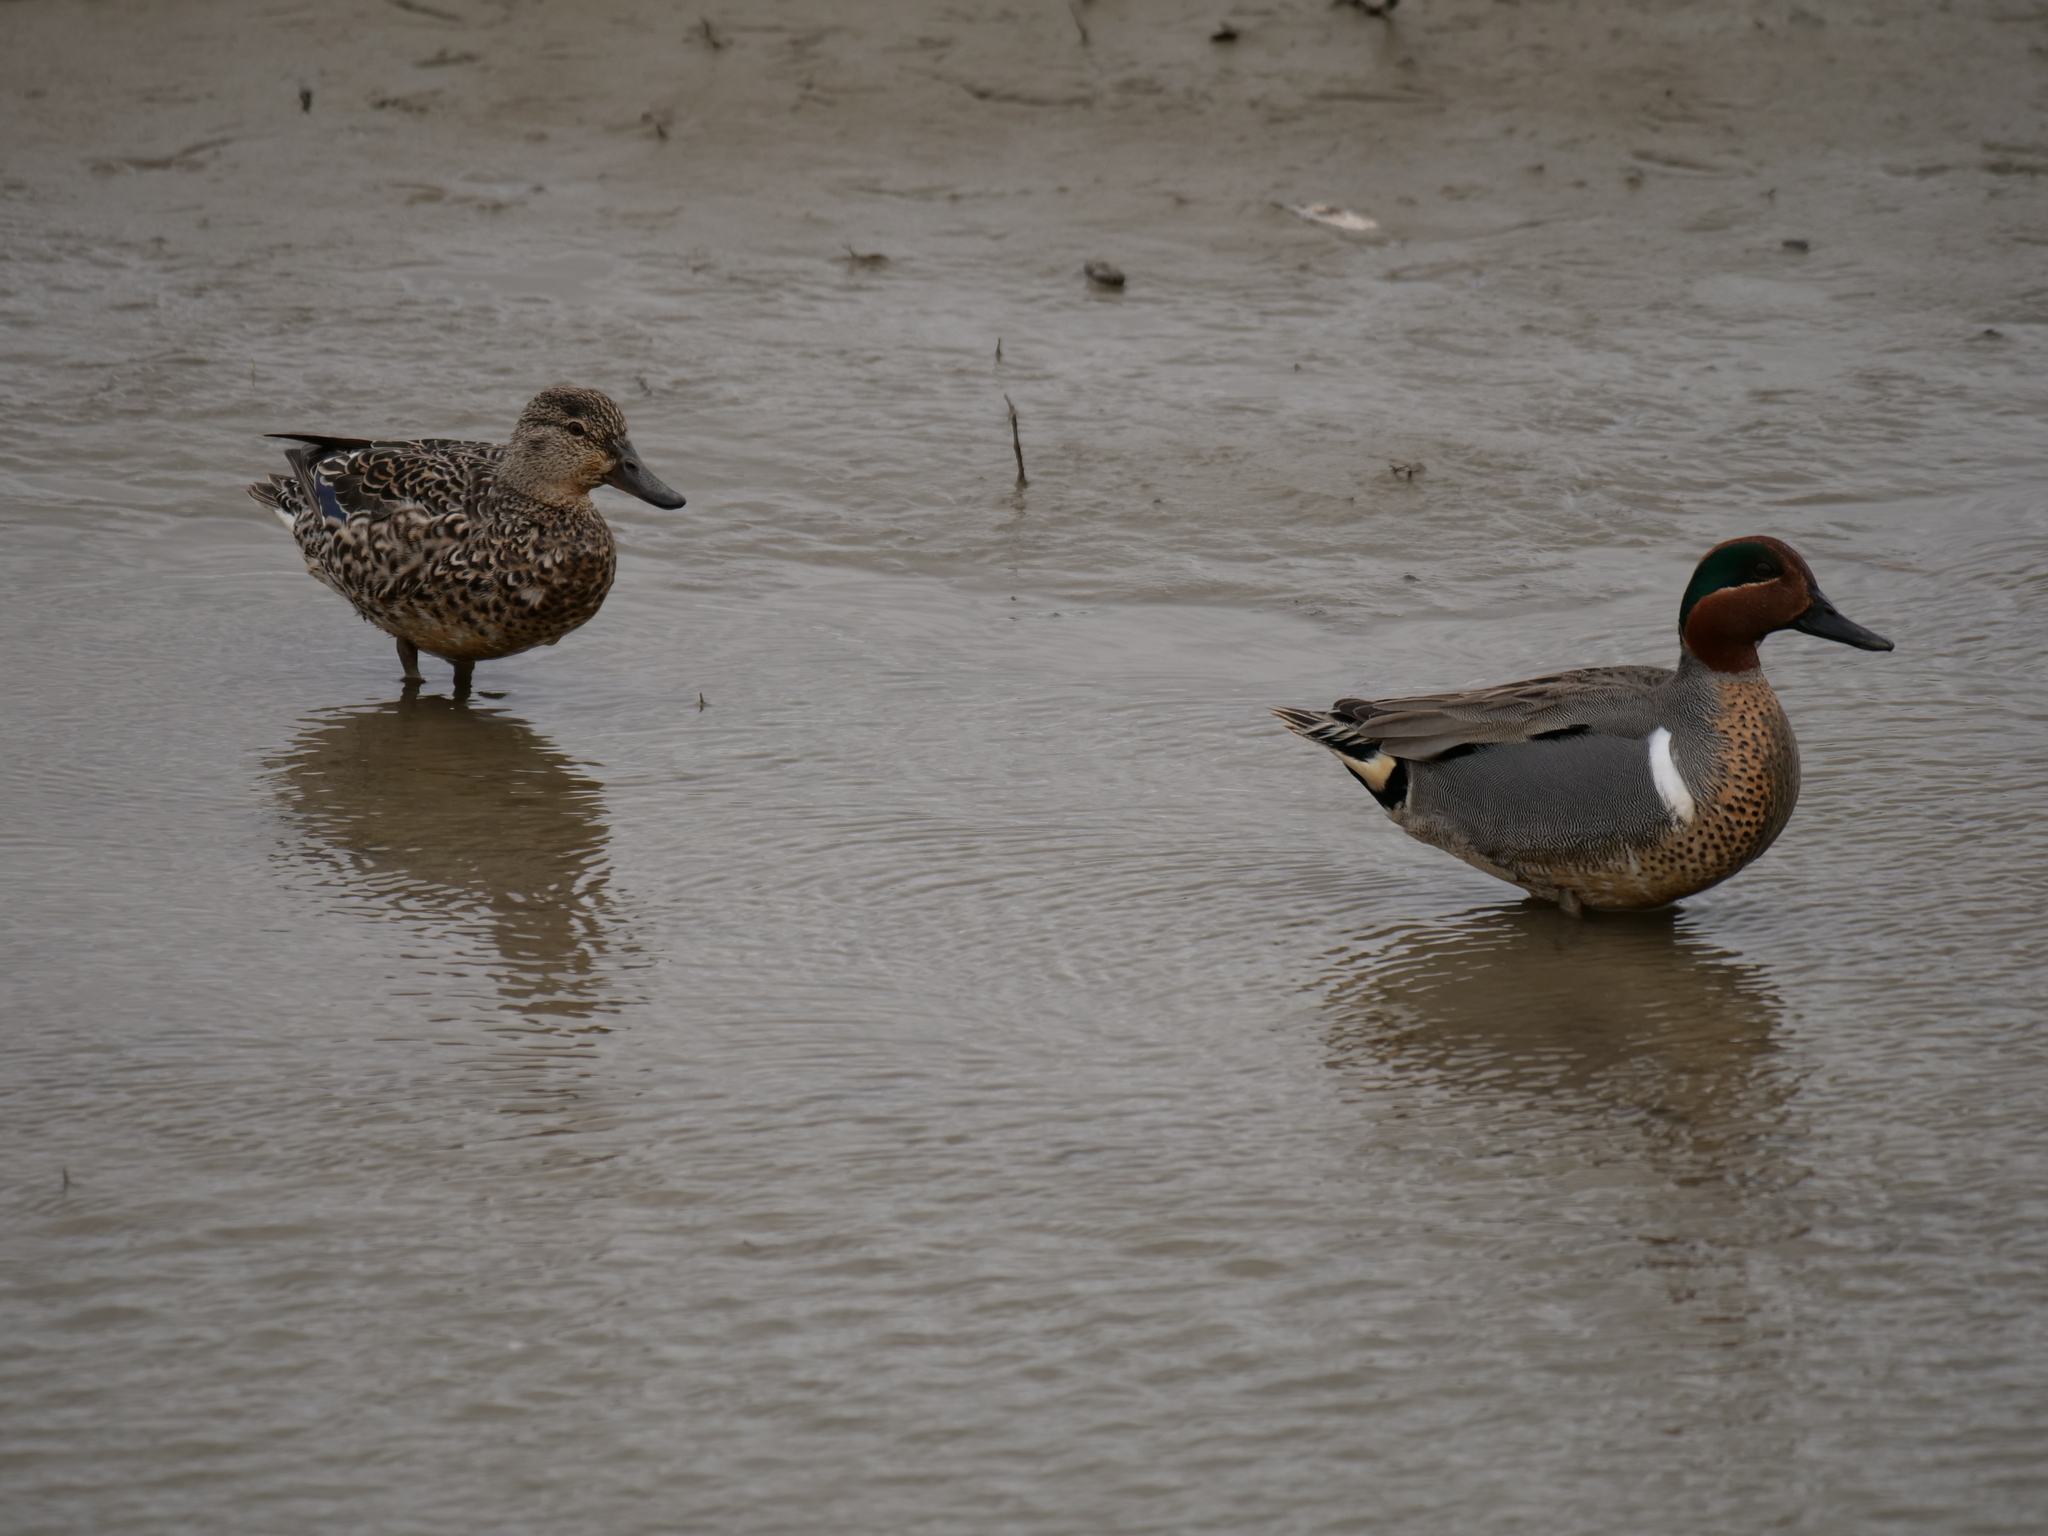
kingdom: Animalia
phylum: Chordata
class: Aves
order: Anseriformes
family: Anatidae
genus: Anas
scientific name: Anas crecca
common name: Eurasian teal
